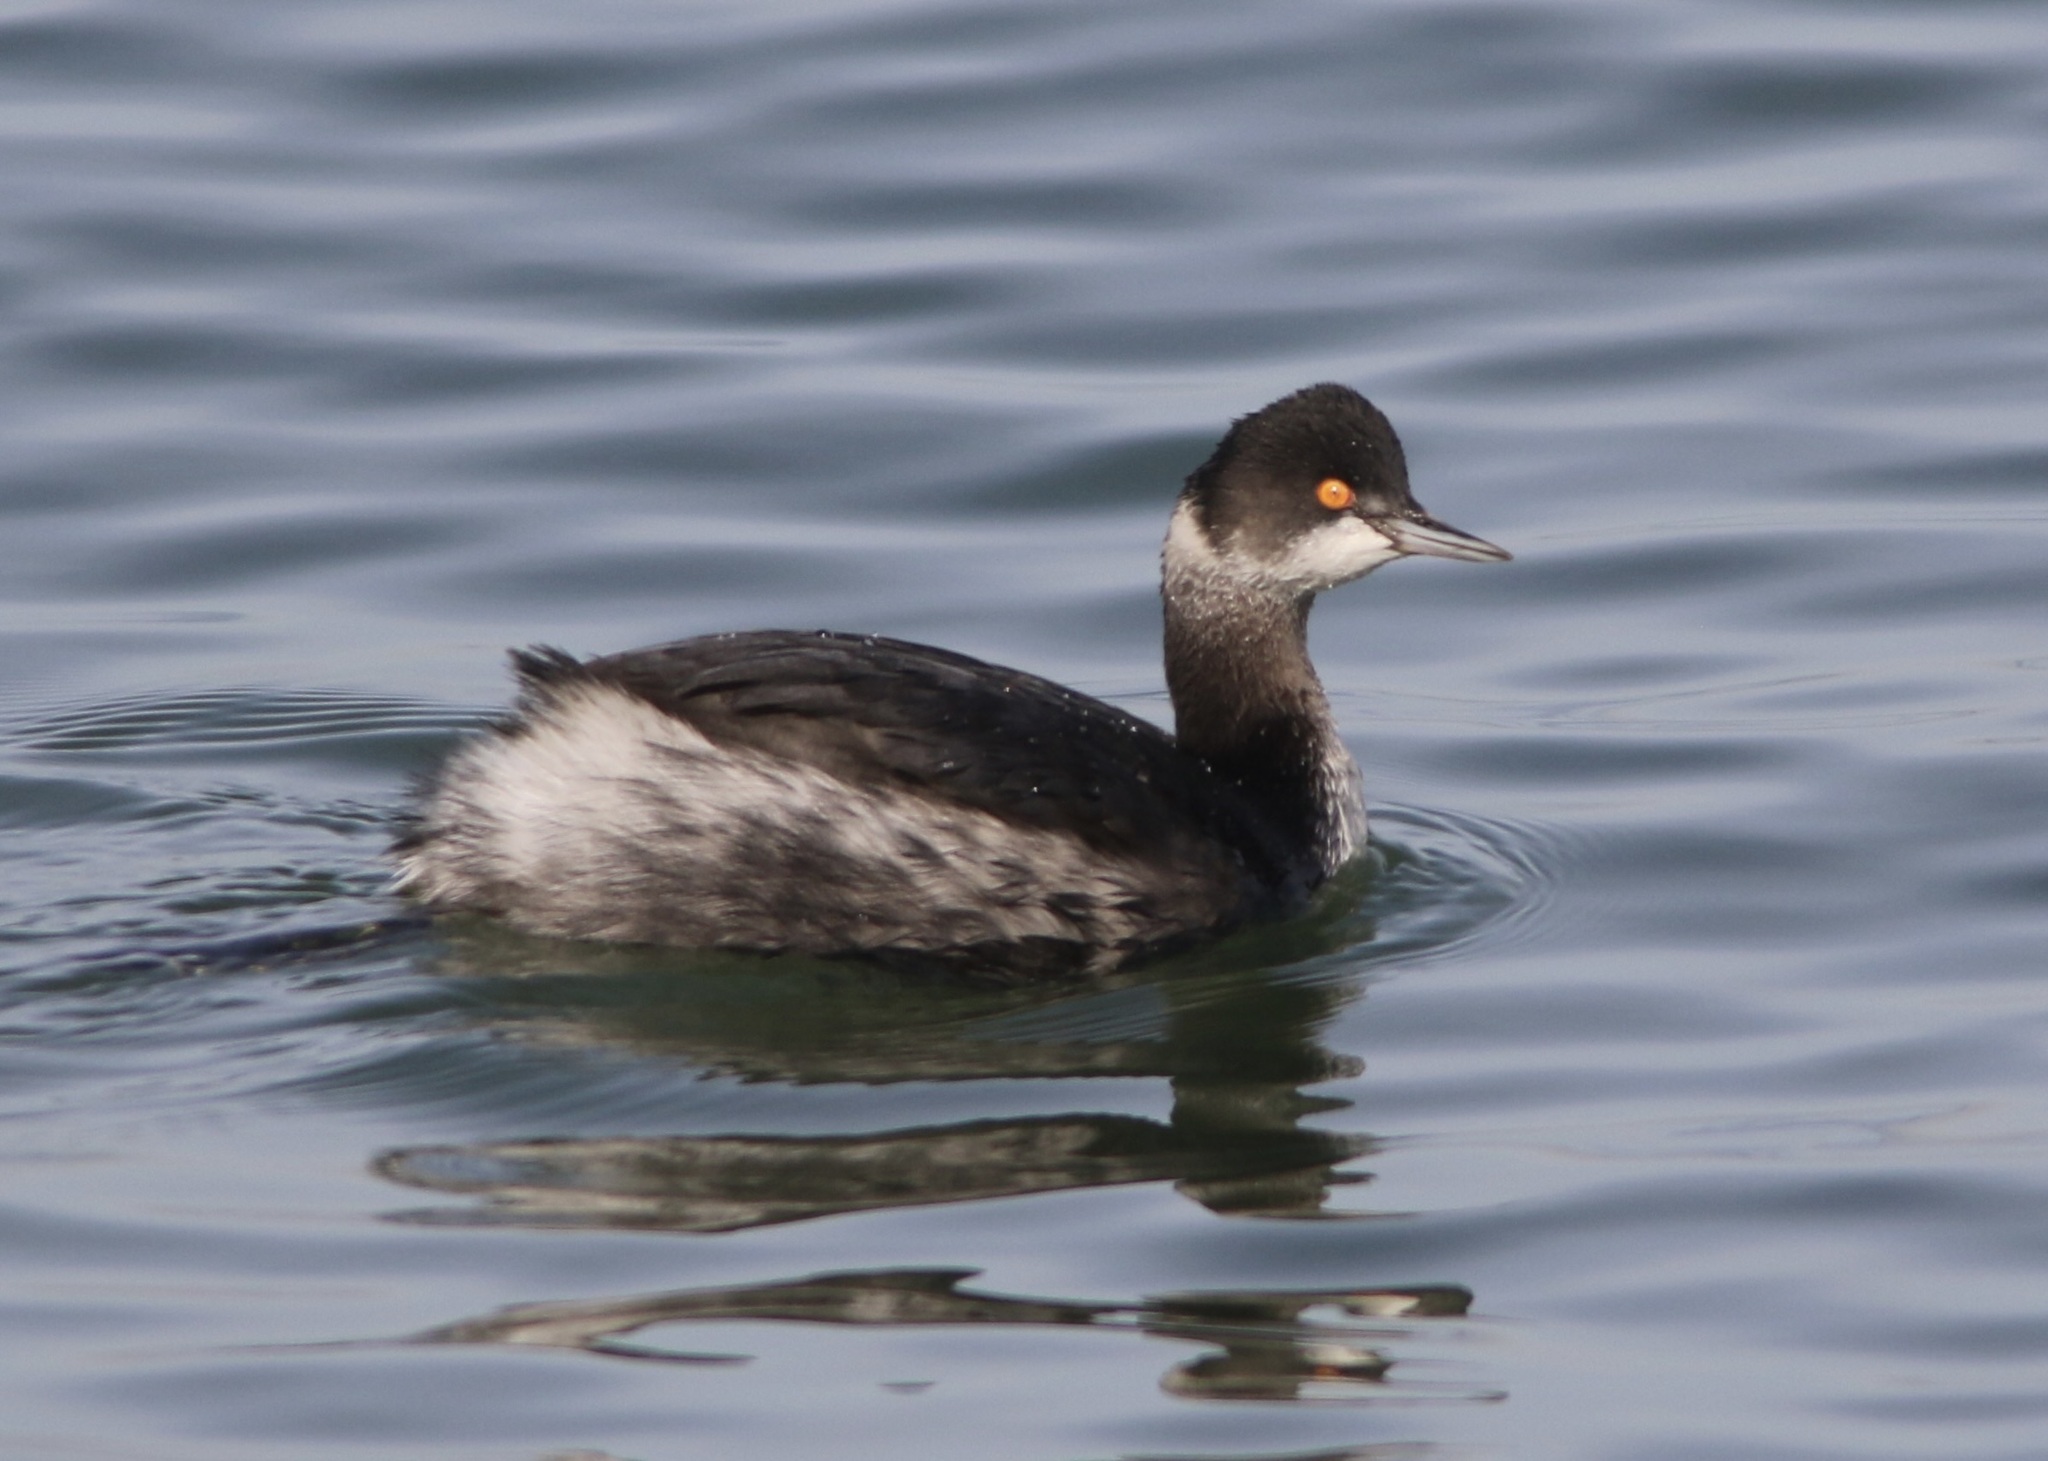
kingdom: Animalia
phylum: Chordata
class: Aves
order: Podicipediformes
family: Podicipedidae
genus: Podiceps
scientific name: Podiceps nigricollis
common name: Black-necked grebe
